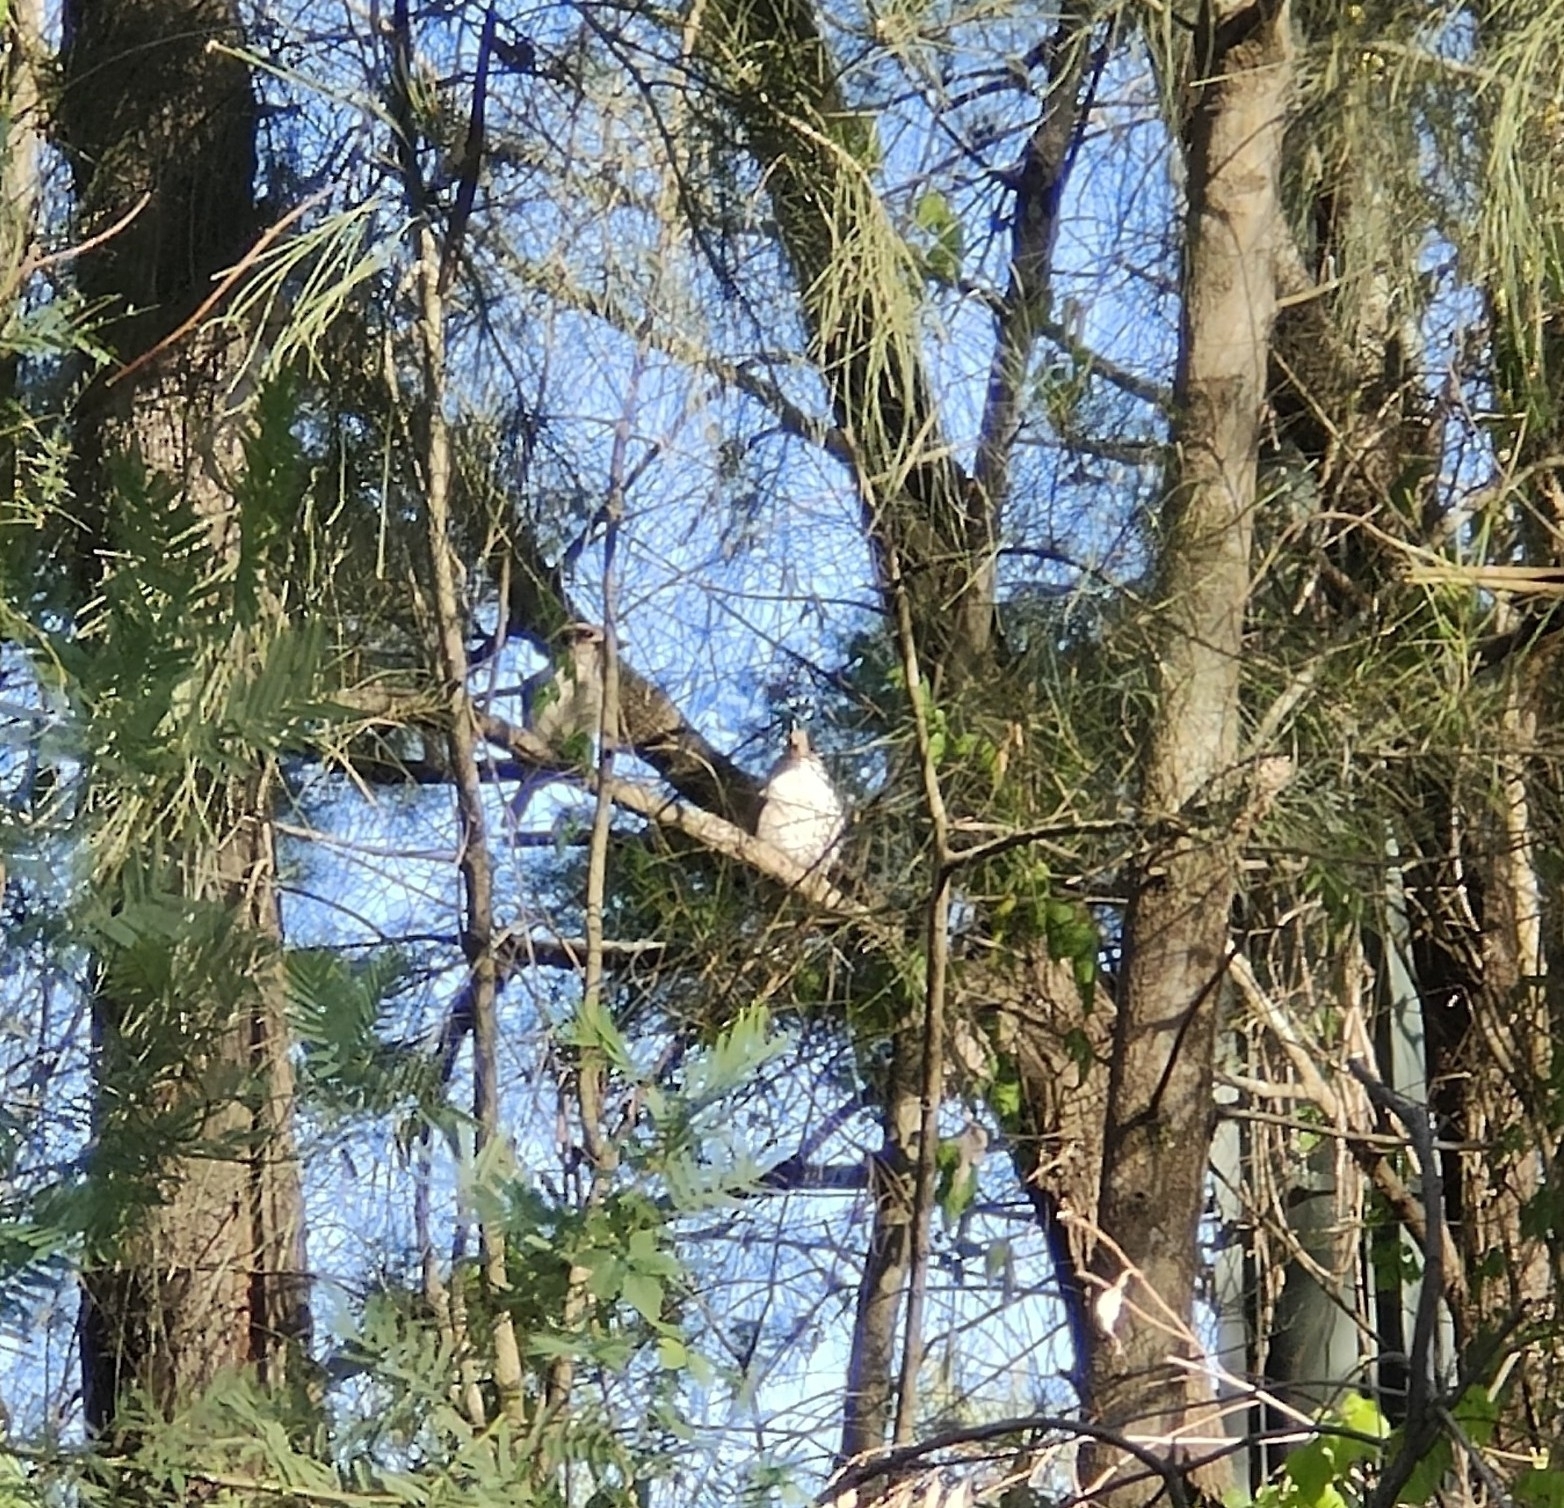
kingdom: Animalia
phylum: Chordata
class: Aves
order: Coraciiformes
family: Alcedinidae
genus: Dacelo
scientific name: Dacelo novaeguineae
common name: Laughing kookaburra
